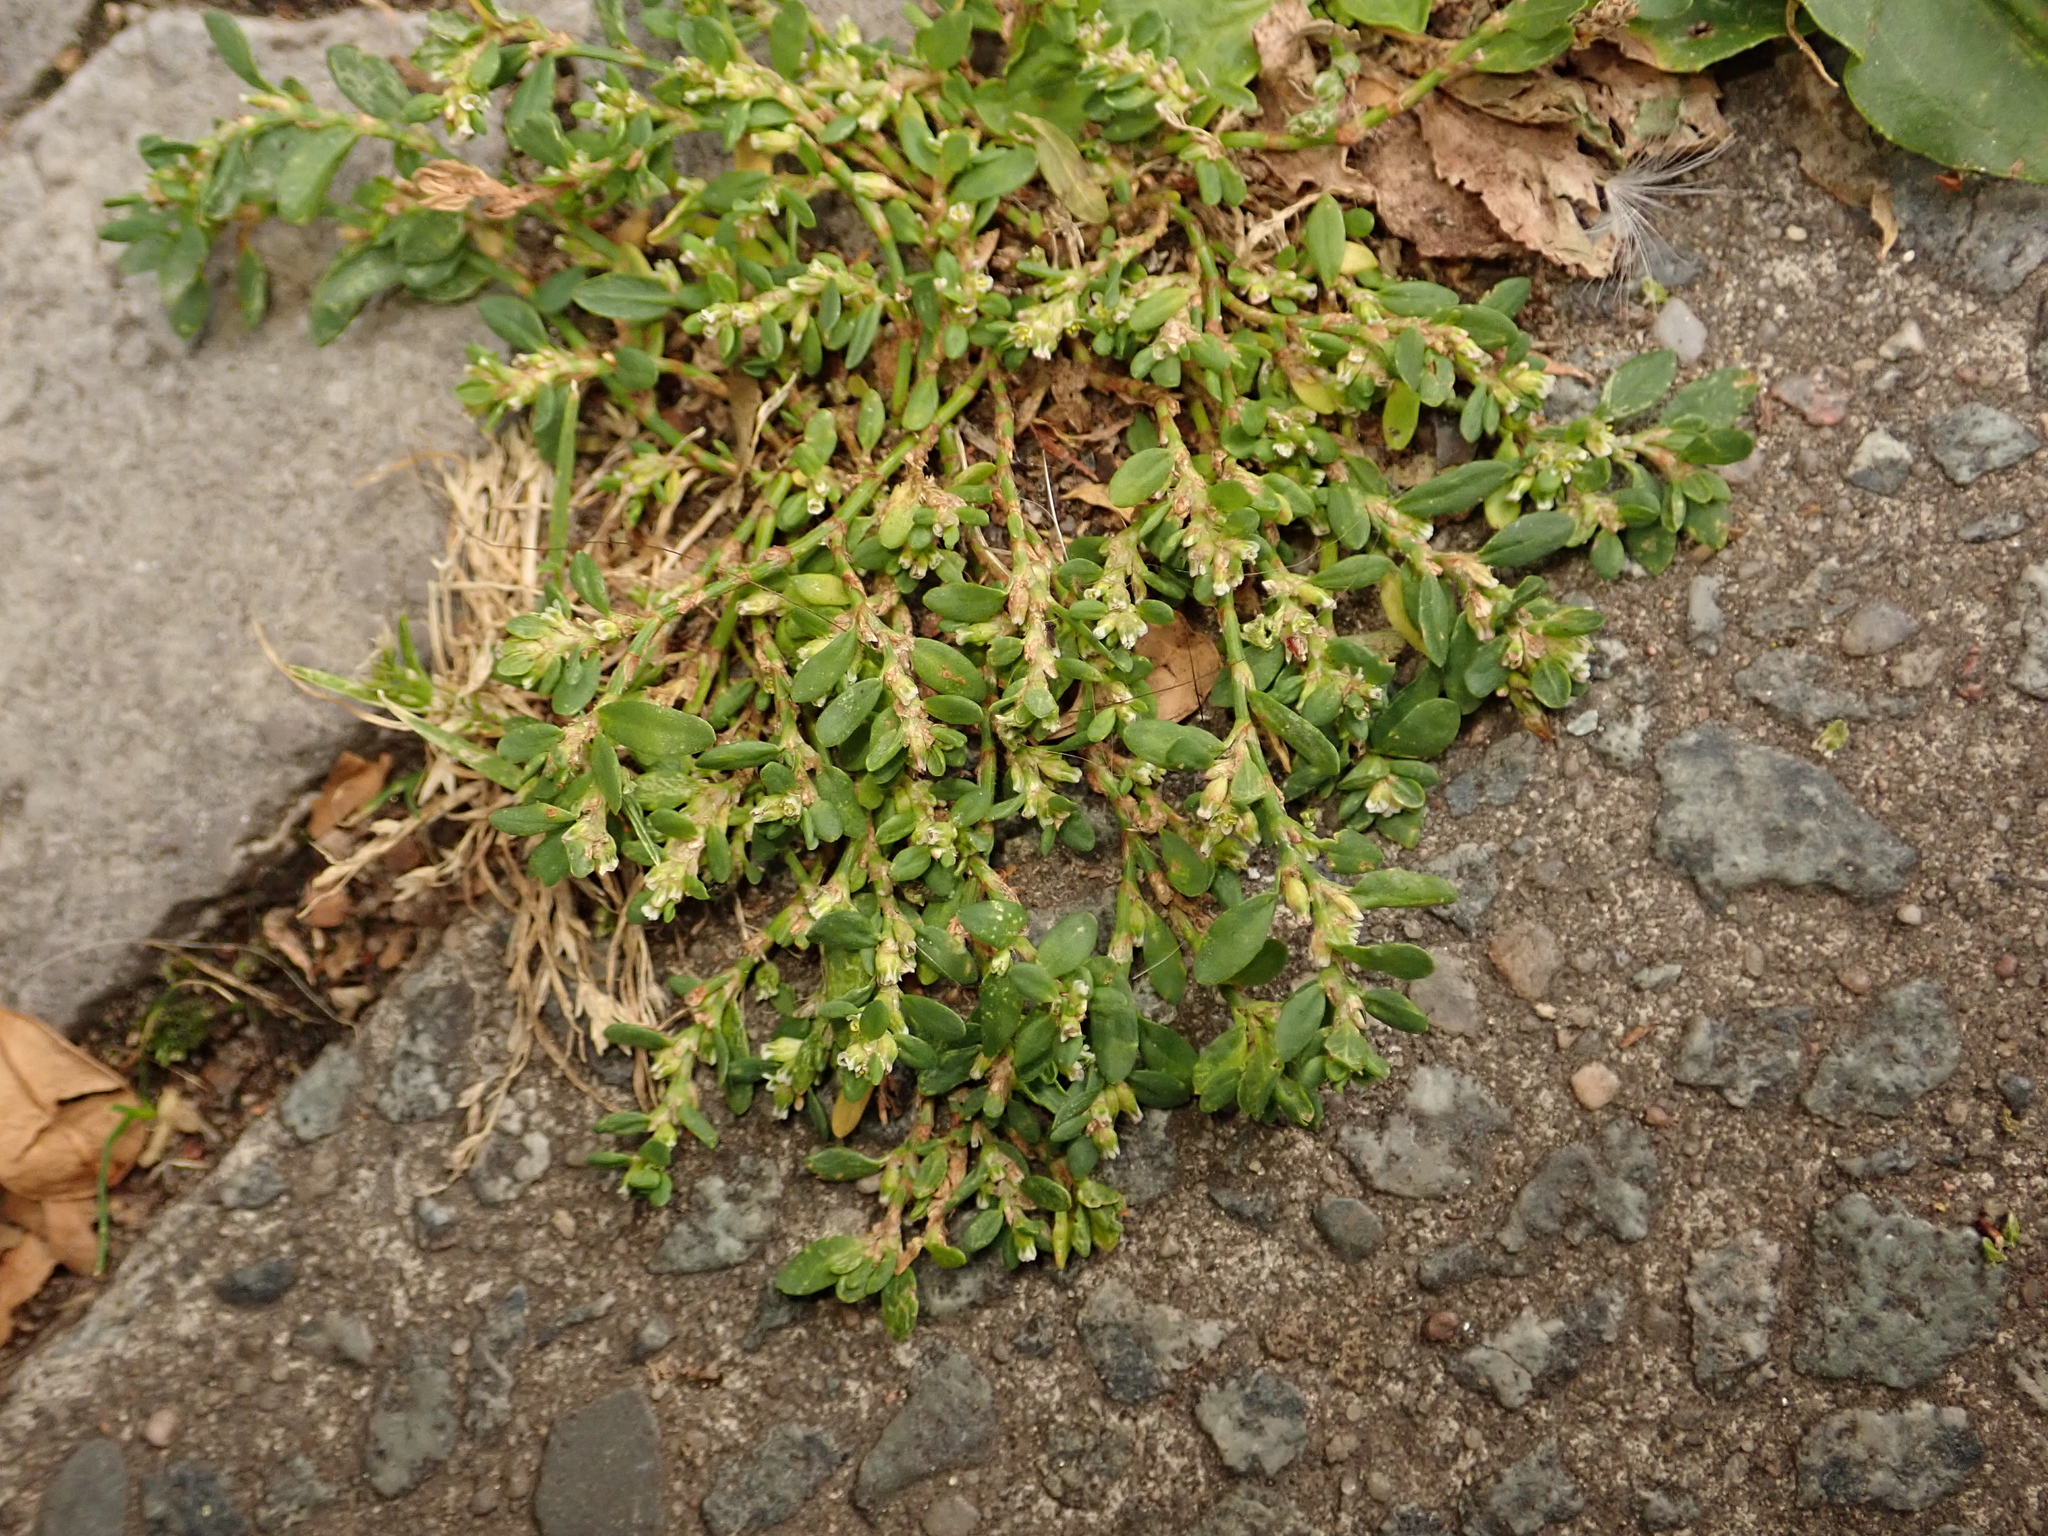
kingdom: Plantae
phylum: Tracheophyta
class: Magnoliopsida
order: Caryophyllales
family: Polygonaceae
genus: Polygonum
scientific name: Polygonum aviculare
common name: Prostrate knotweed
